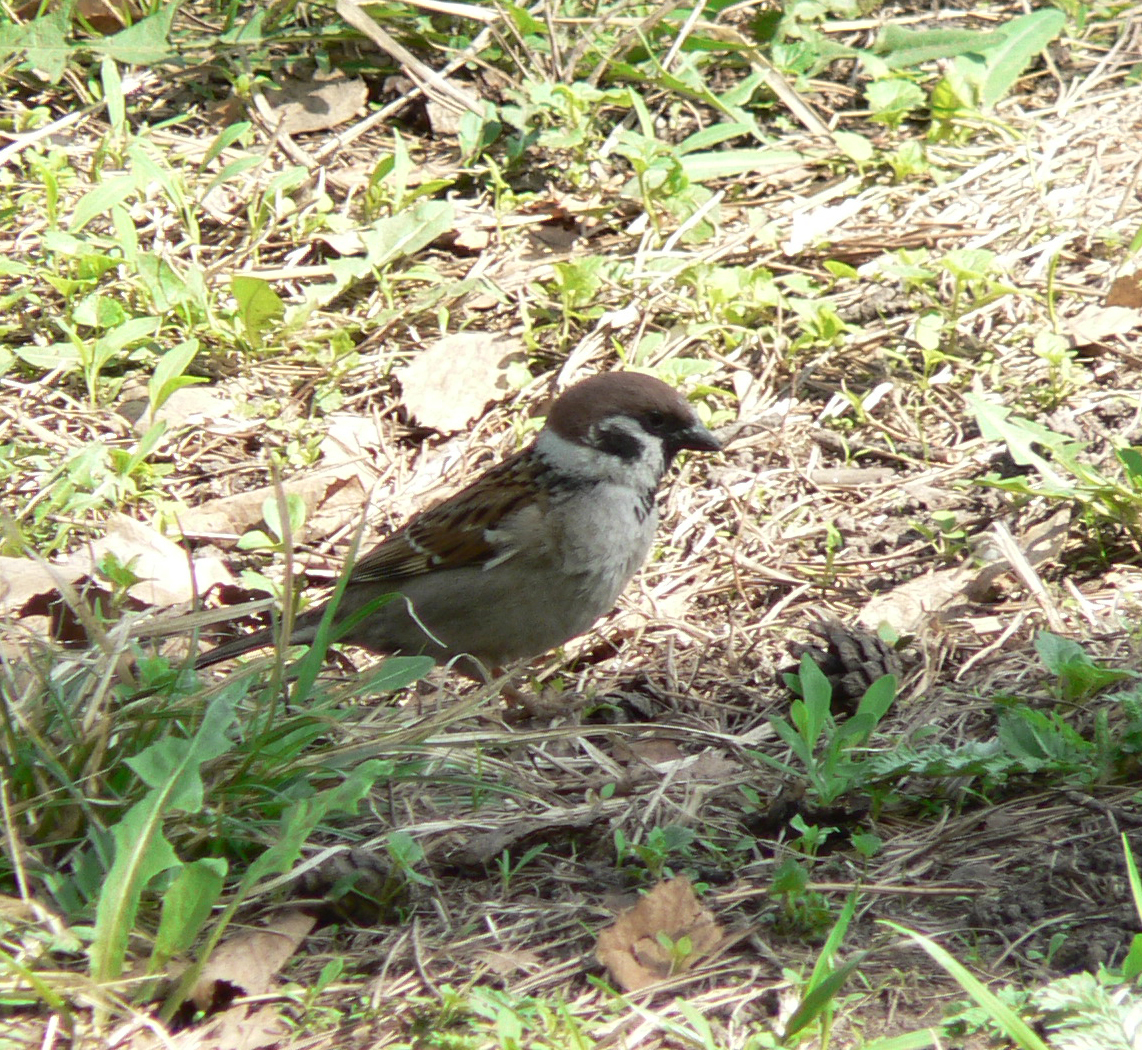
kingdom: Animalia
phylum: Chordata
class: Aves
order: Passeriformes
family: Passeridae
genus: Passer
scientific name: Passer montanus
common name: Eurasian tree sparrow
